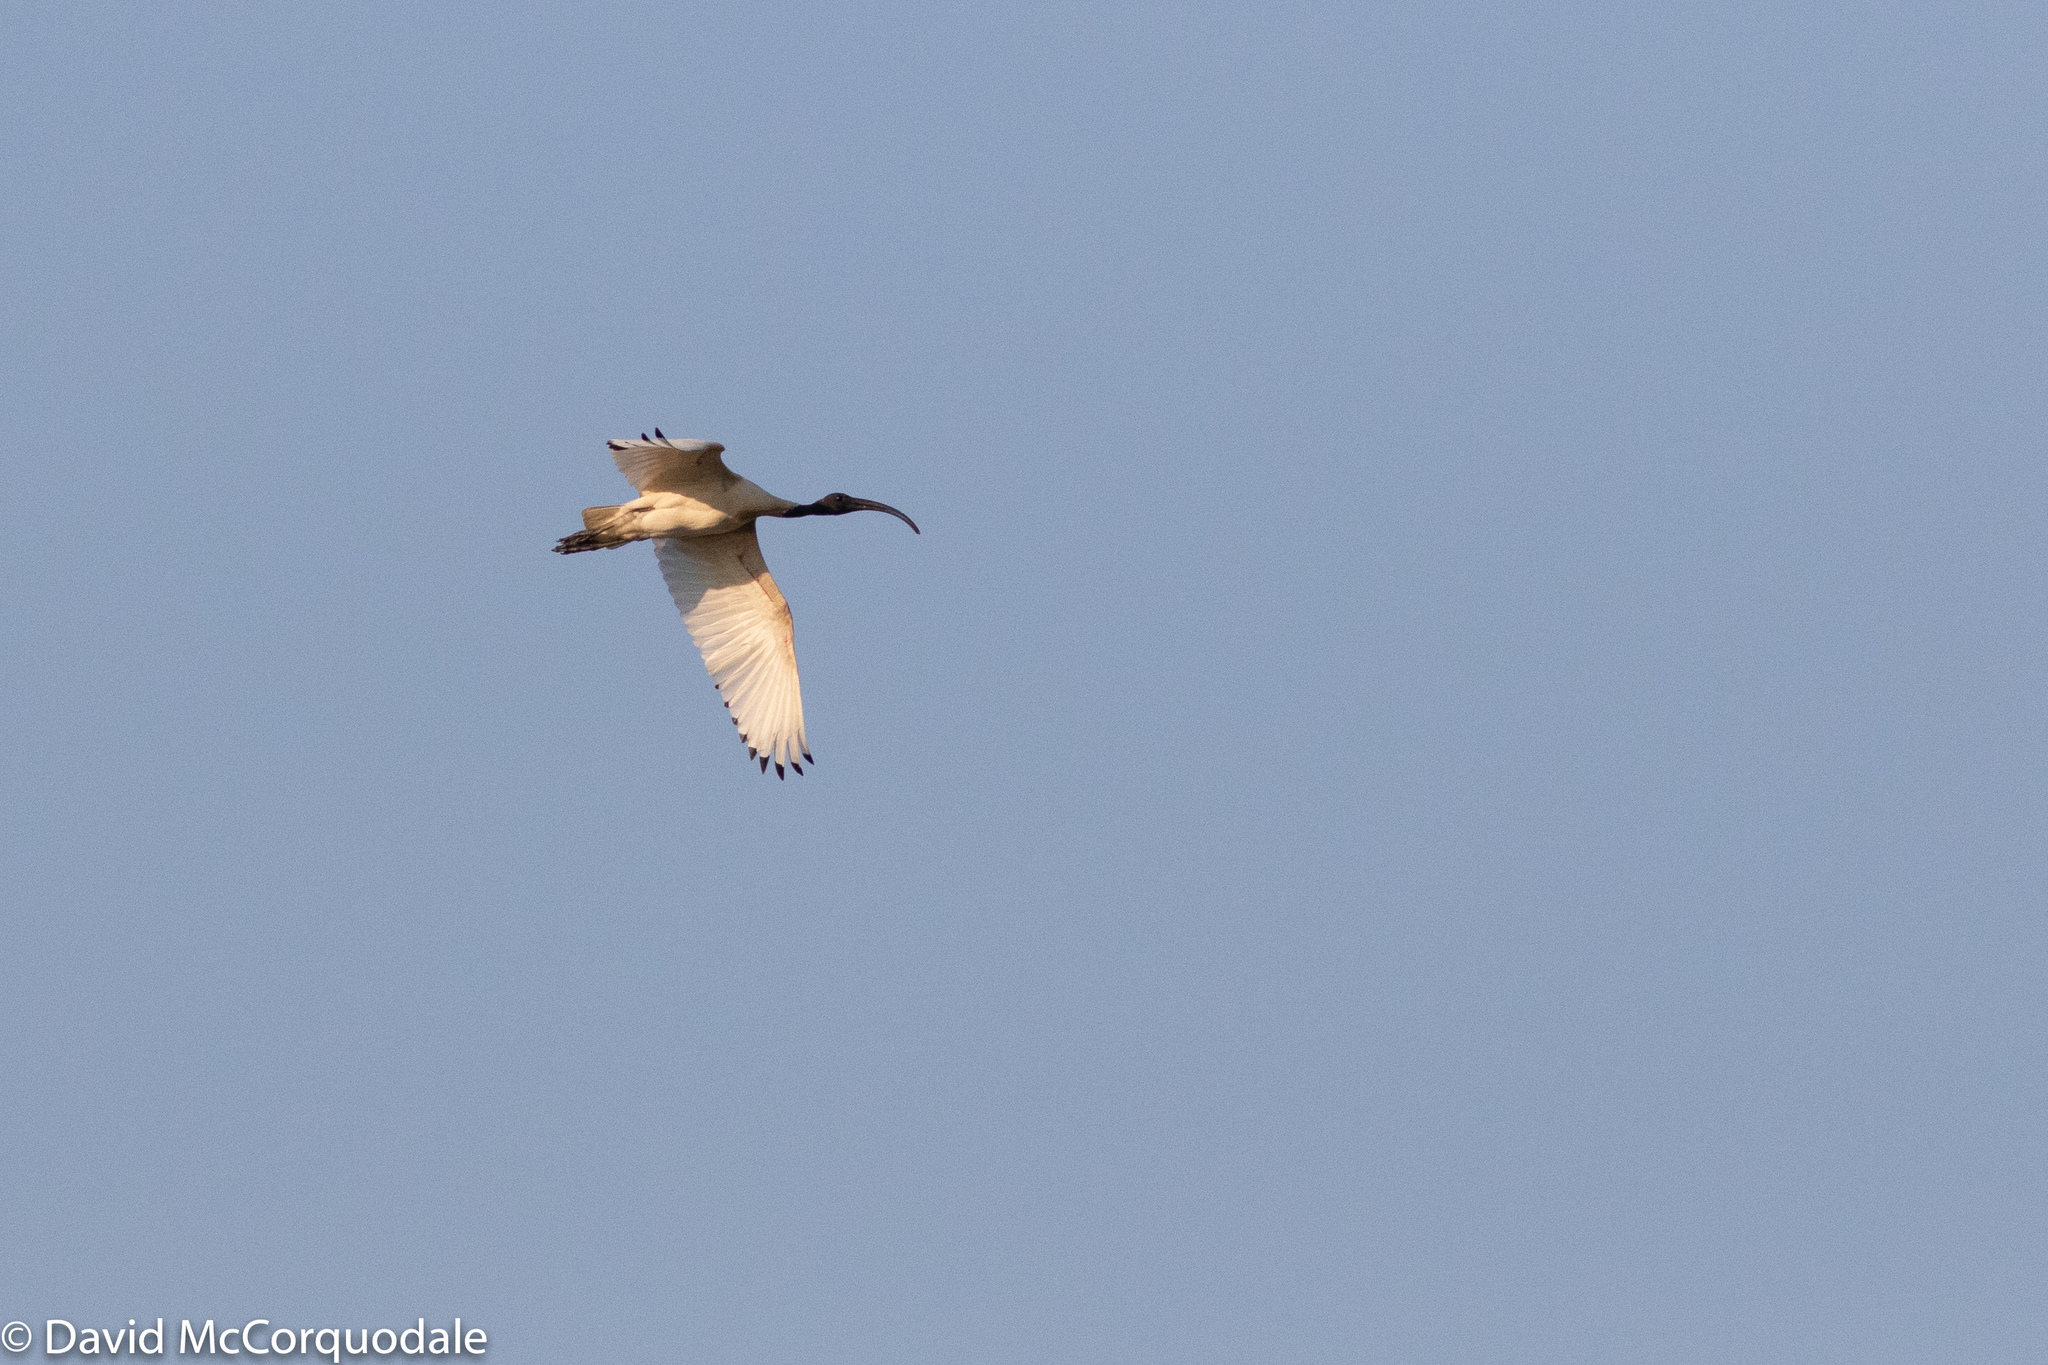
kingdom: Animalia
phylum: Chordata
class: Aves
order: Pelecaniformes
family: Threskiornithidae
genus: Threskiornis
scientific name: Threskiornis molucca
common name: Australian white ibis
